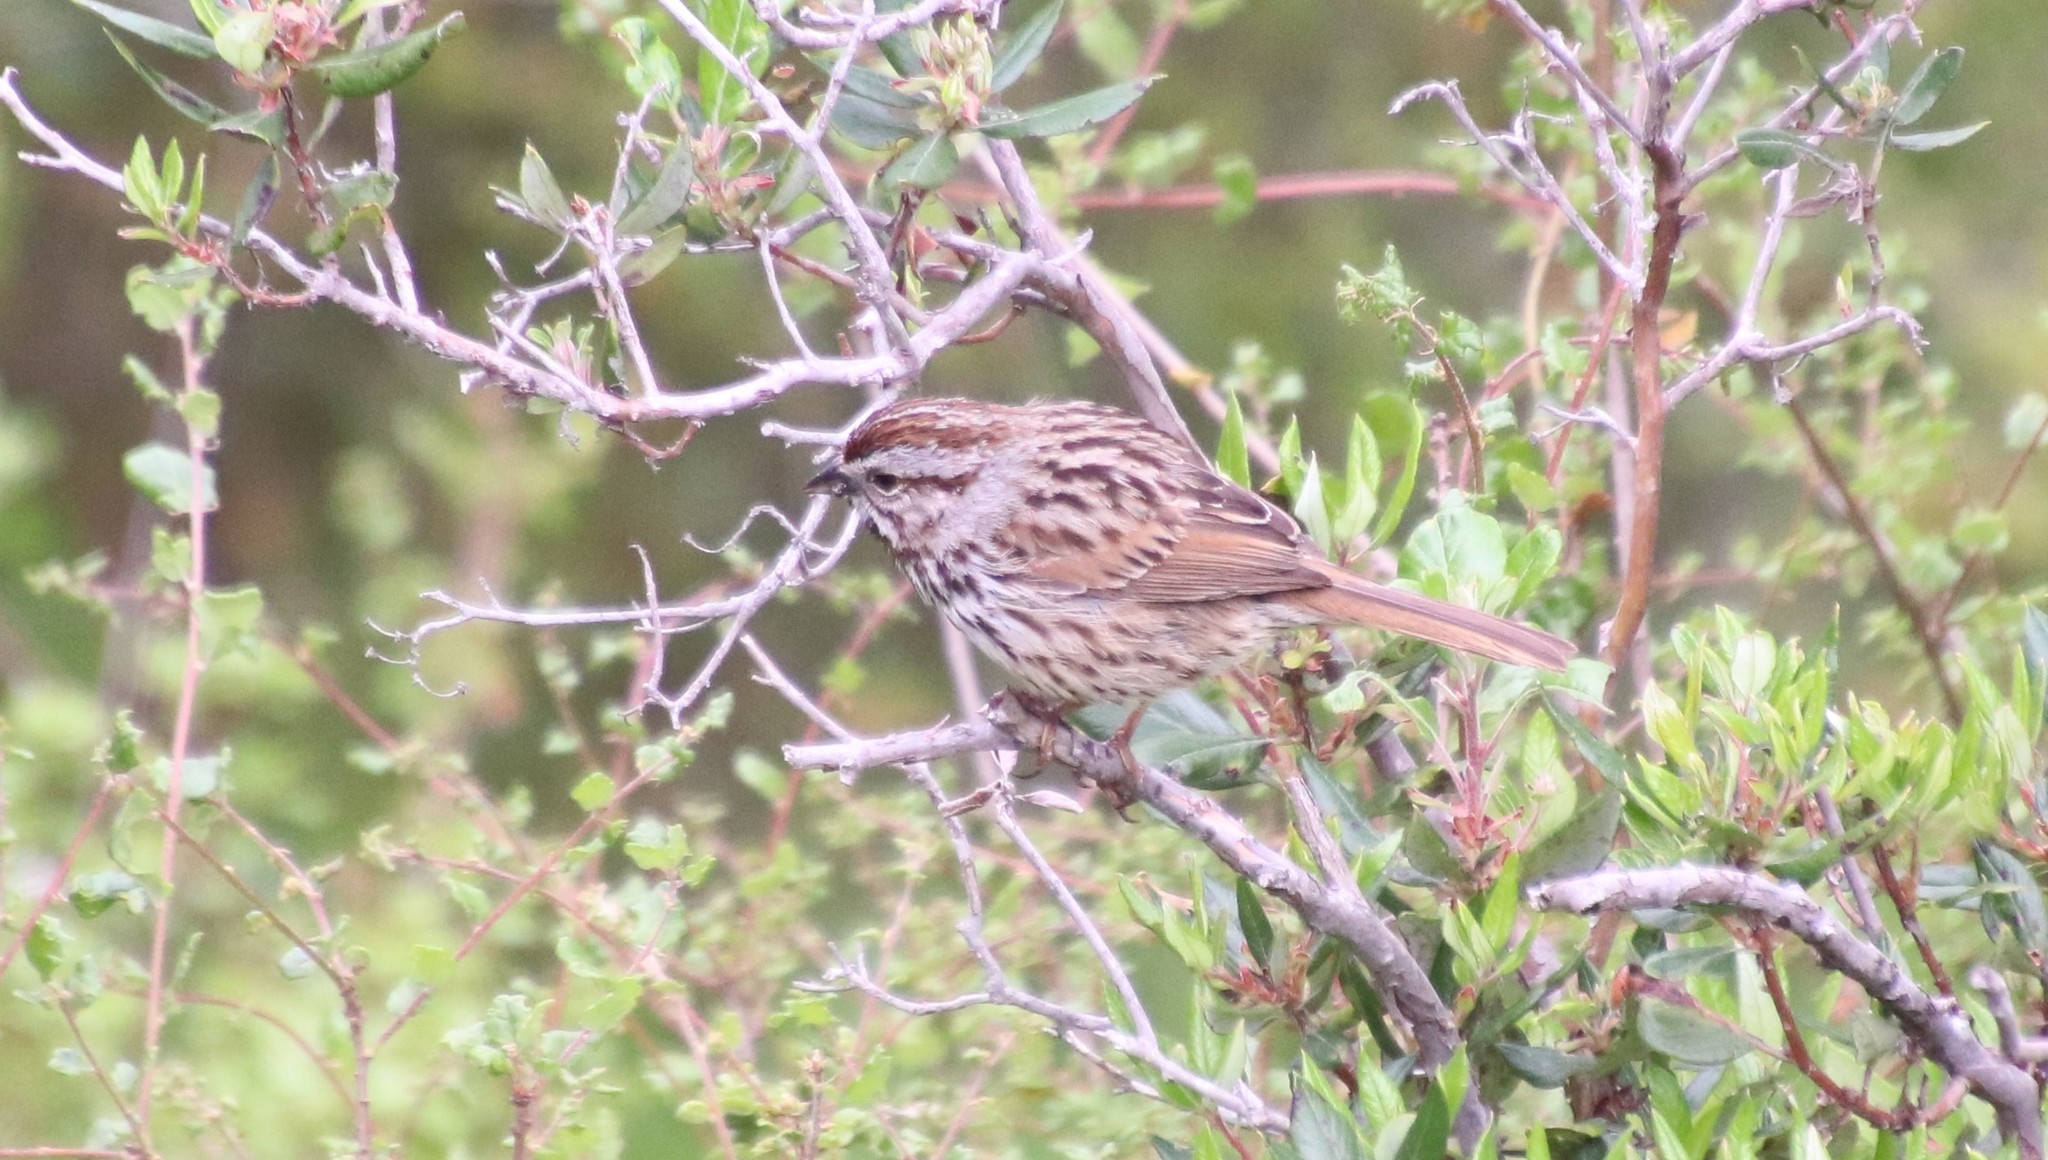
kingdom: Animalia
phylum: Chordata
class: Aves
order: Passeriformes
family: Passerellidae
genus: Melospiza
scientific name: Melospiza melodia
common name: Song sparrow
